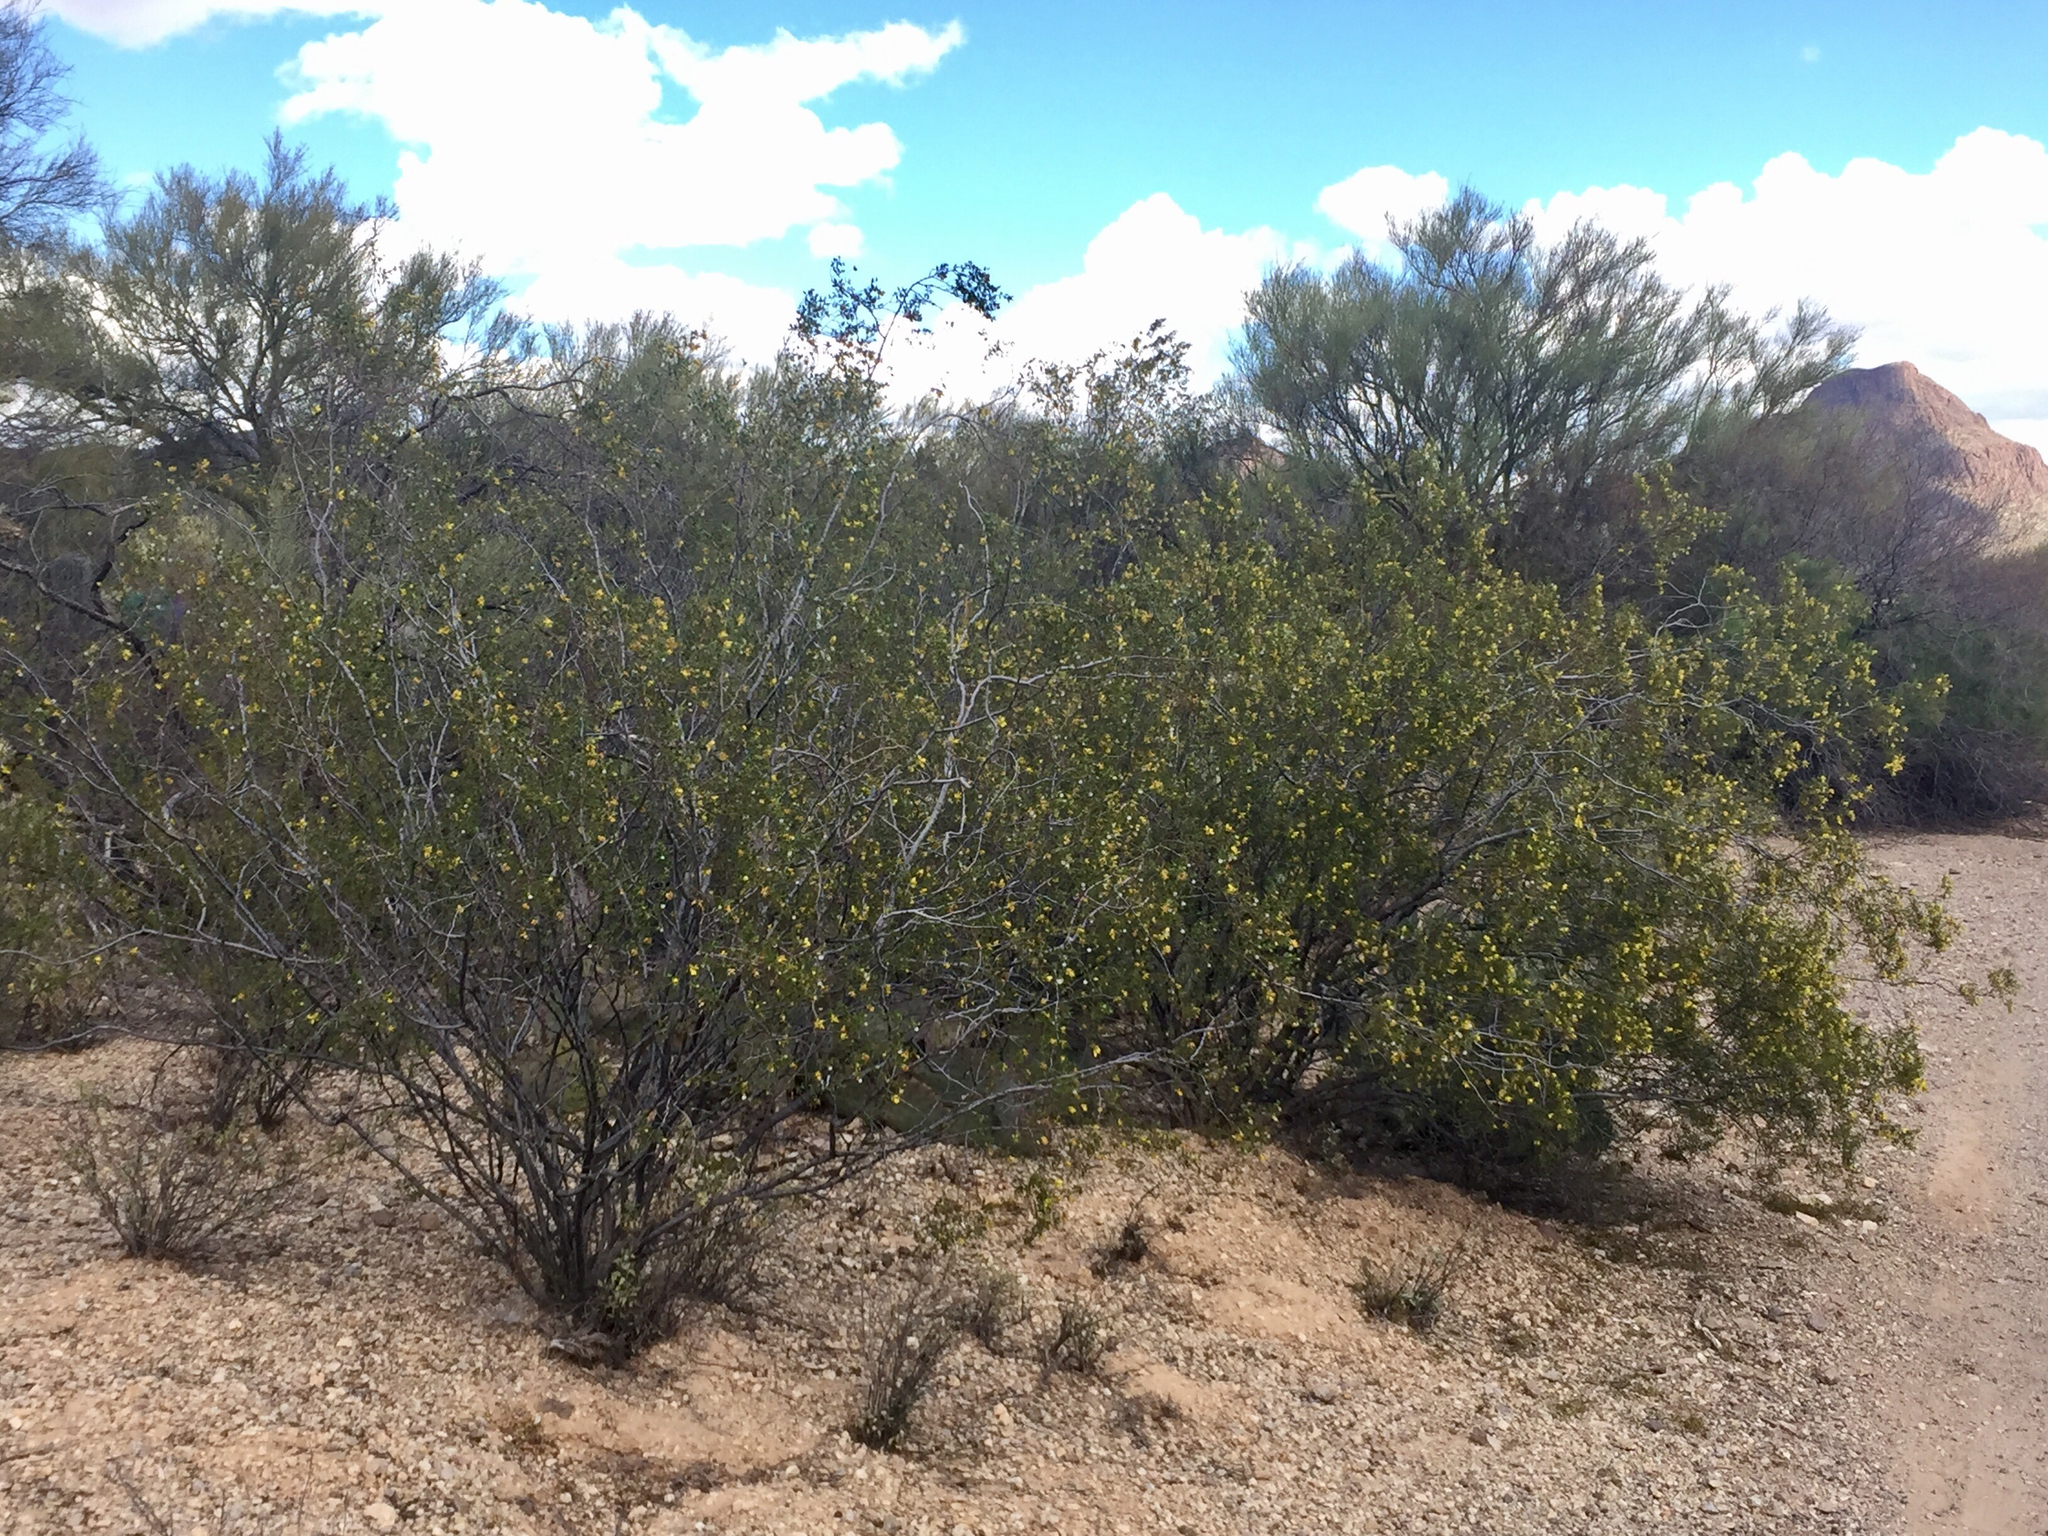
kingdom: Plantae
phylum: Tracheophyta
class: Magnoliopsida
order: Zygophyllales
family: Zygophyllaceae
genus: Larrea
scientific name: Larrea tridentata
